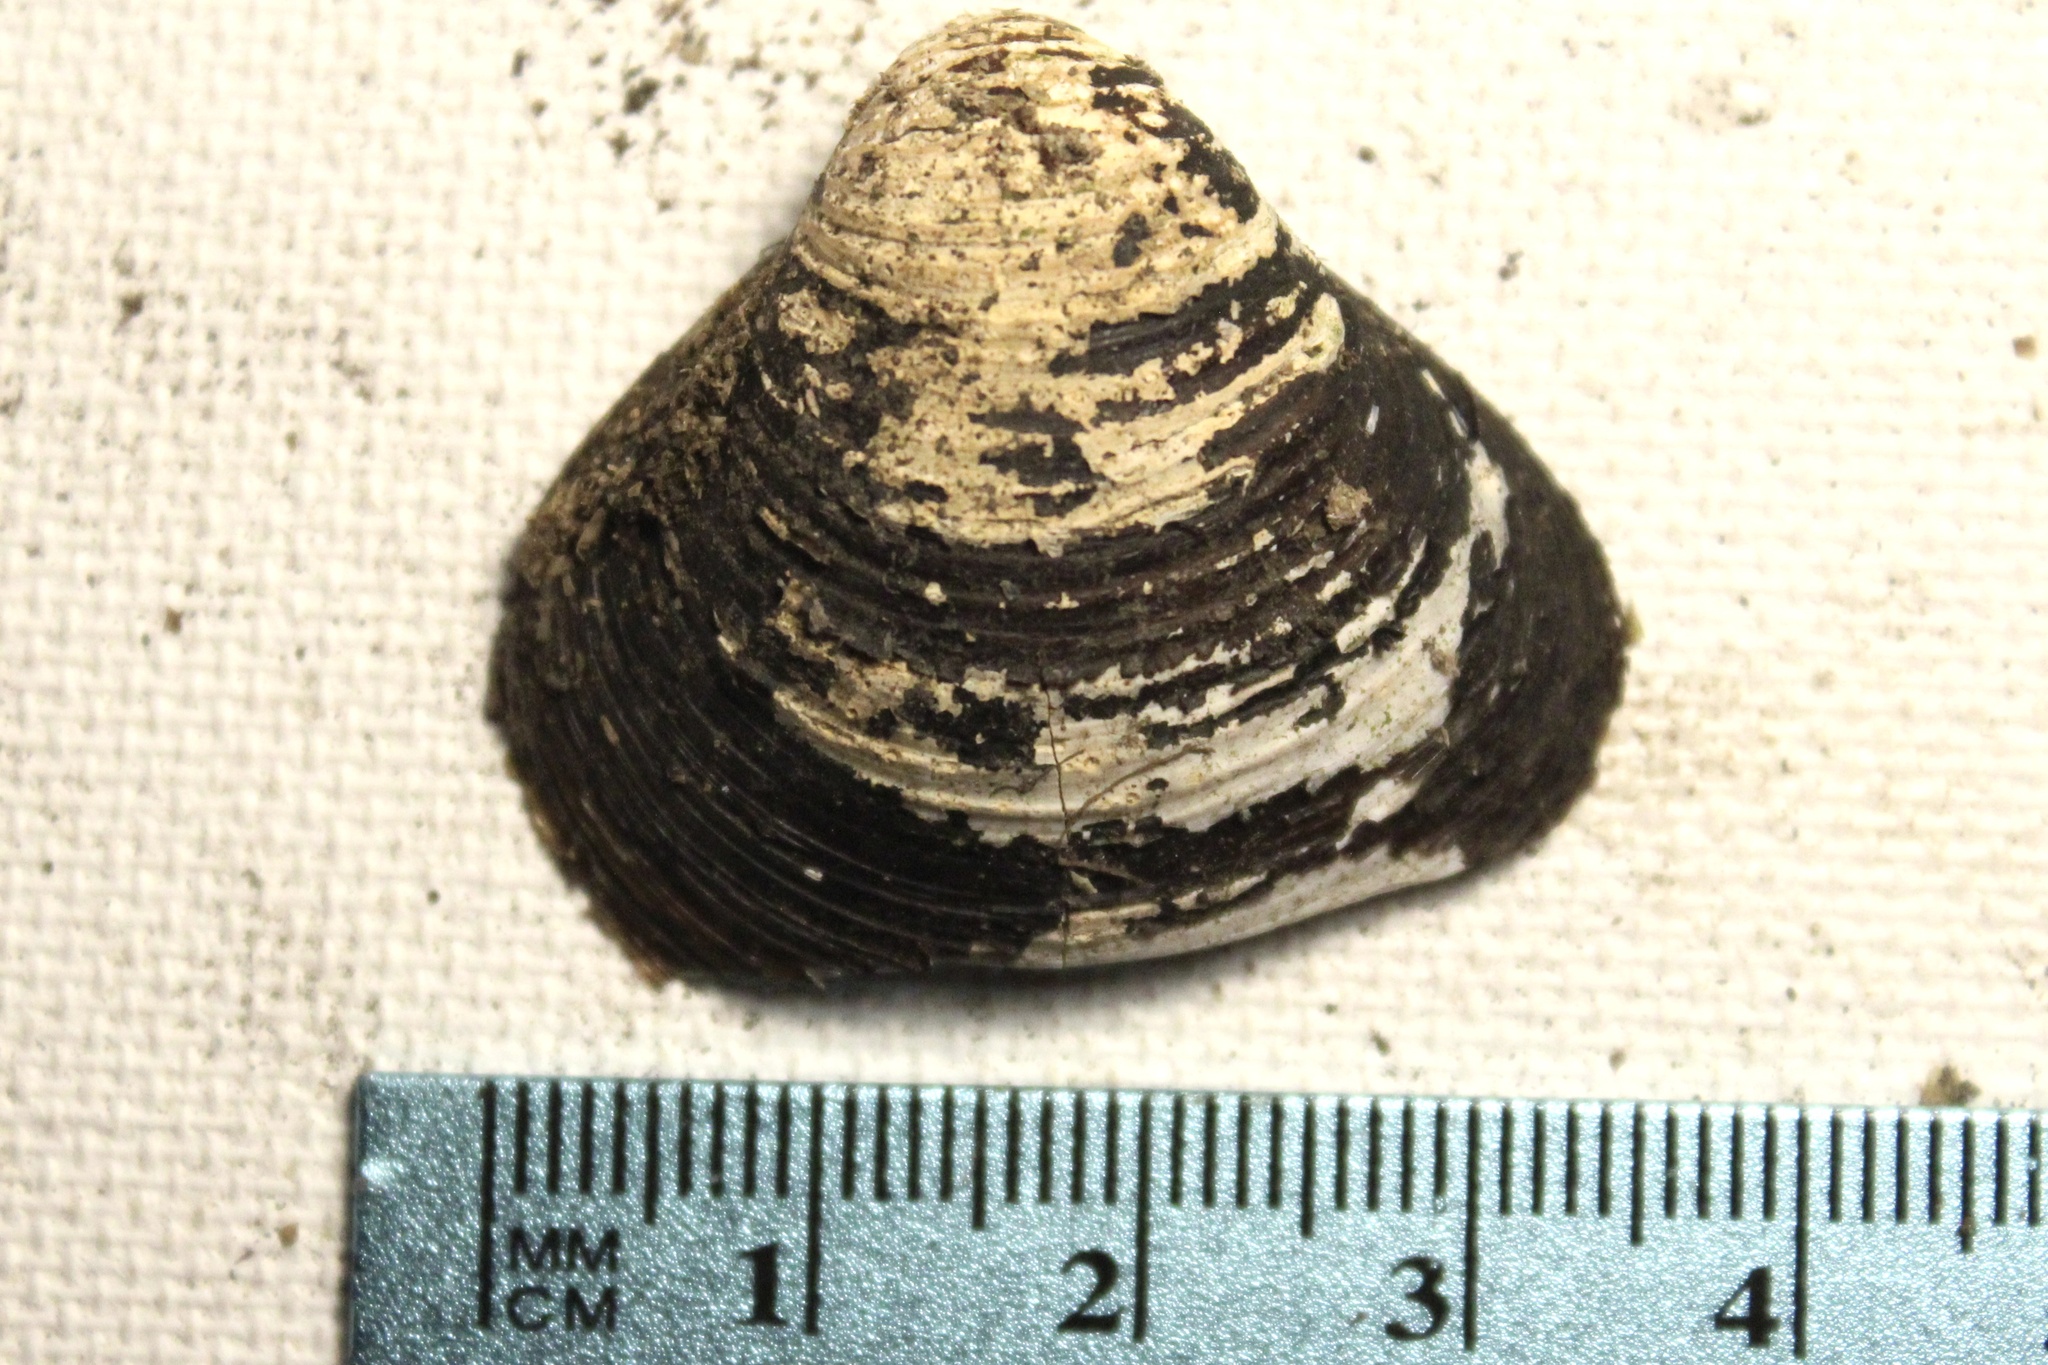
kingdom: Animalia
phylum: Mollusca
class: Bivalvia
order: Venerida
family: Cyrenidae
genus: Corbicula
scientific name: Corbicula fluminea
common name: Asian clam
